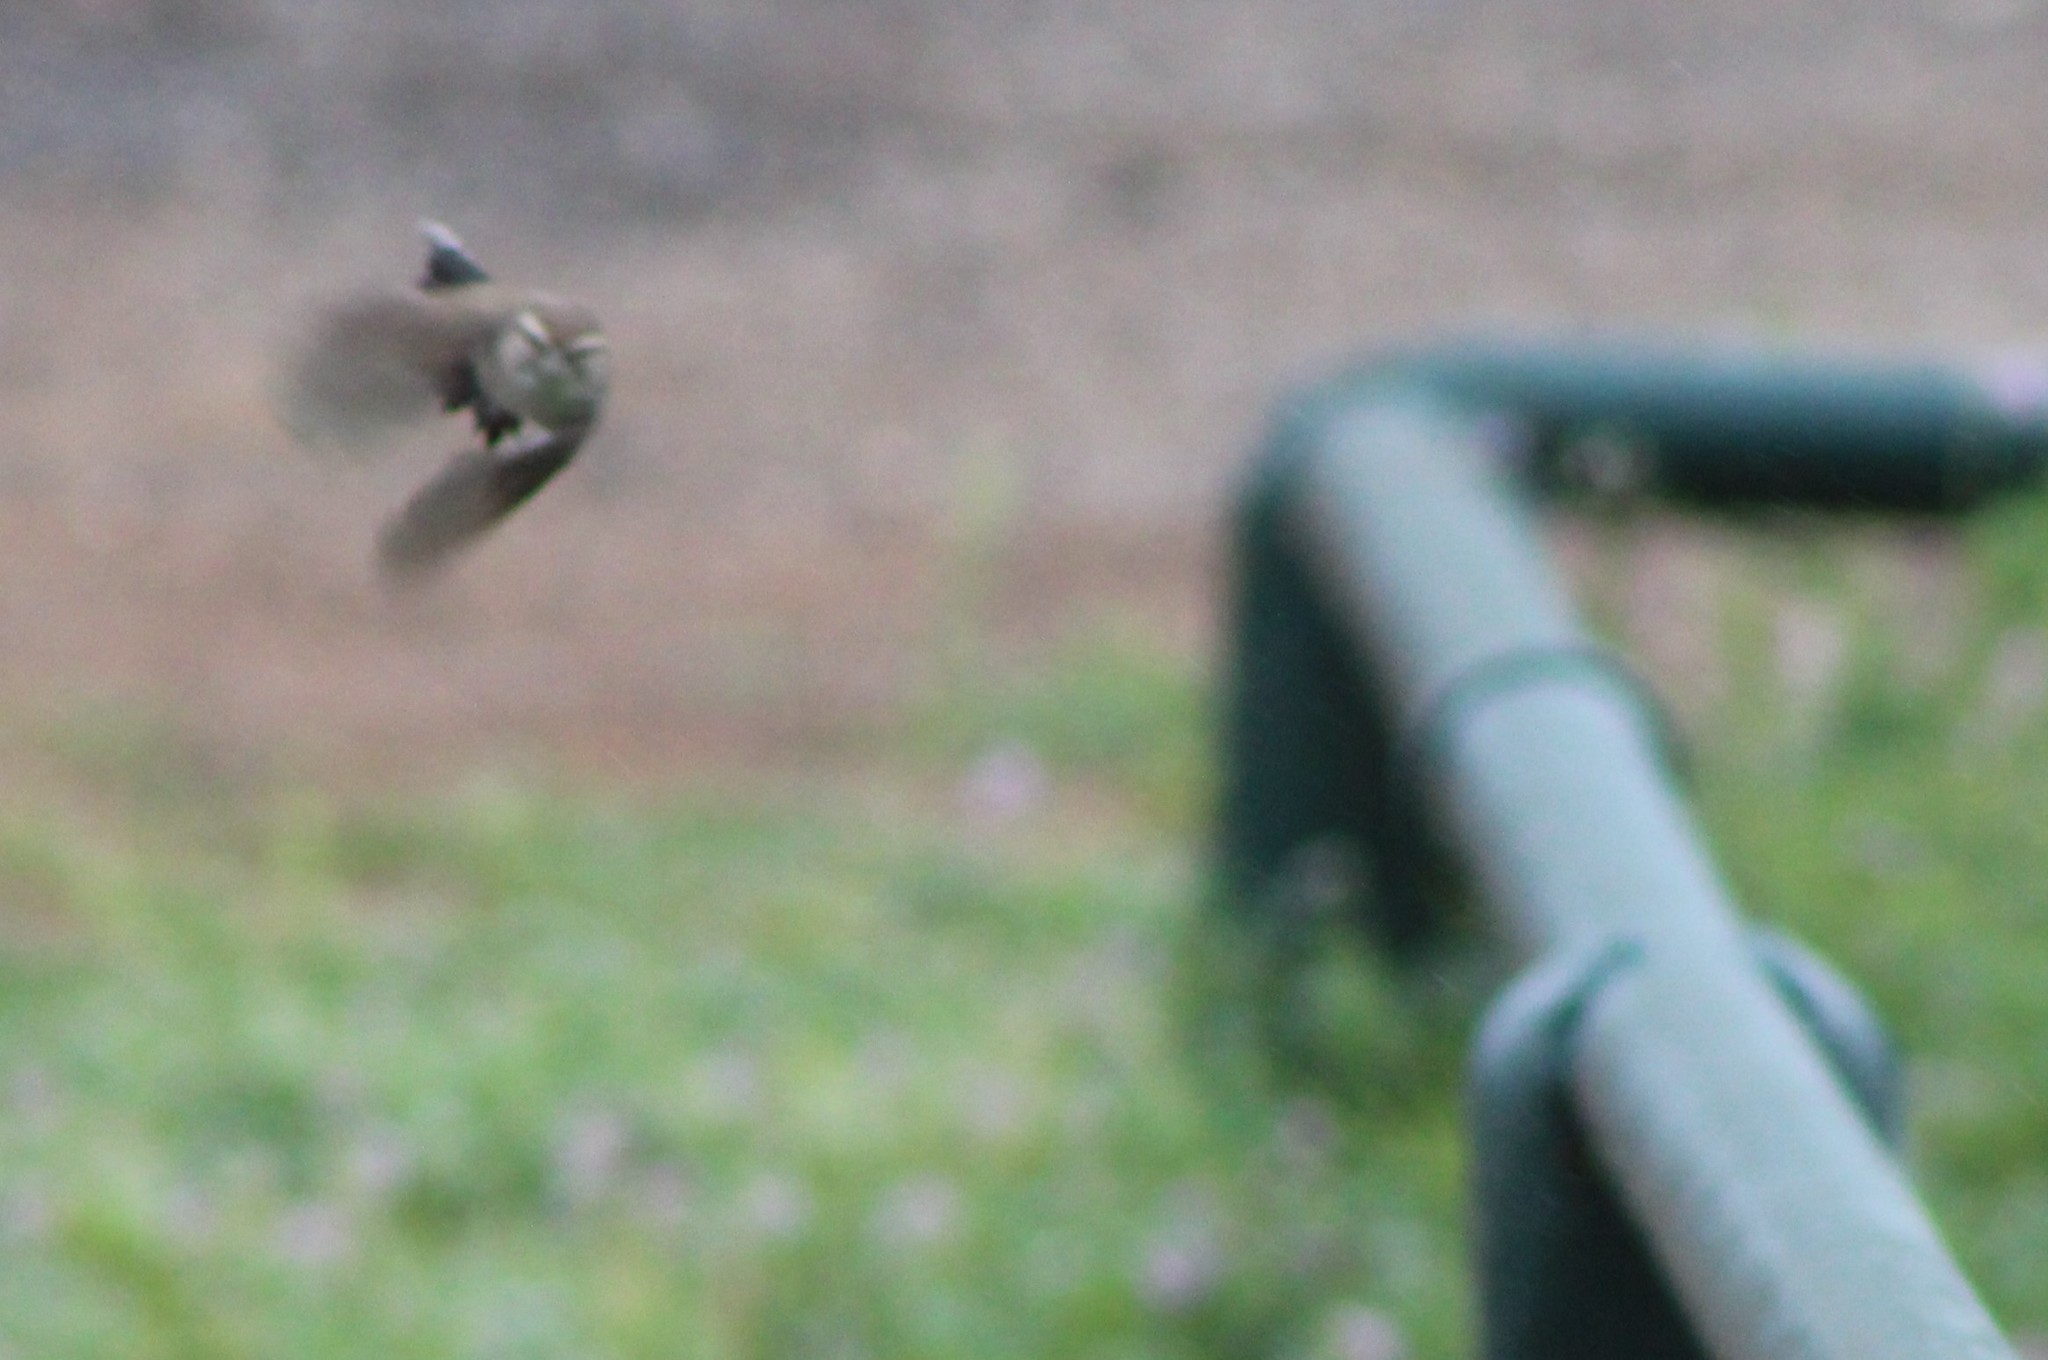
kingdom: Animalia
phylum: Chordata
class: Aves
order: Passeriformes
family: Troglodytidae
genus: Thryomanes
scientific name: Thryomanes bewickii
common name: Bewick's wren
